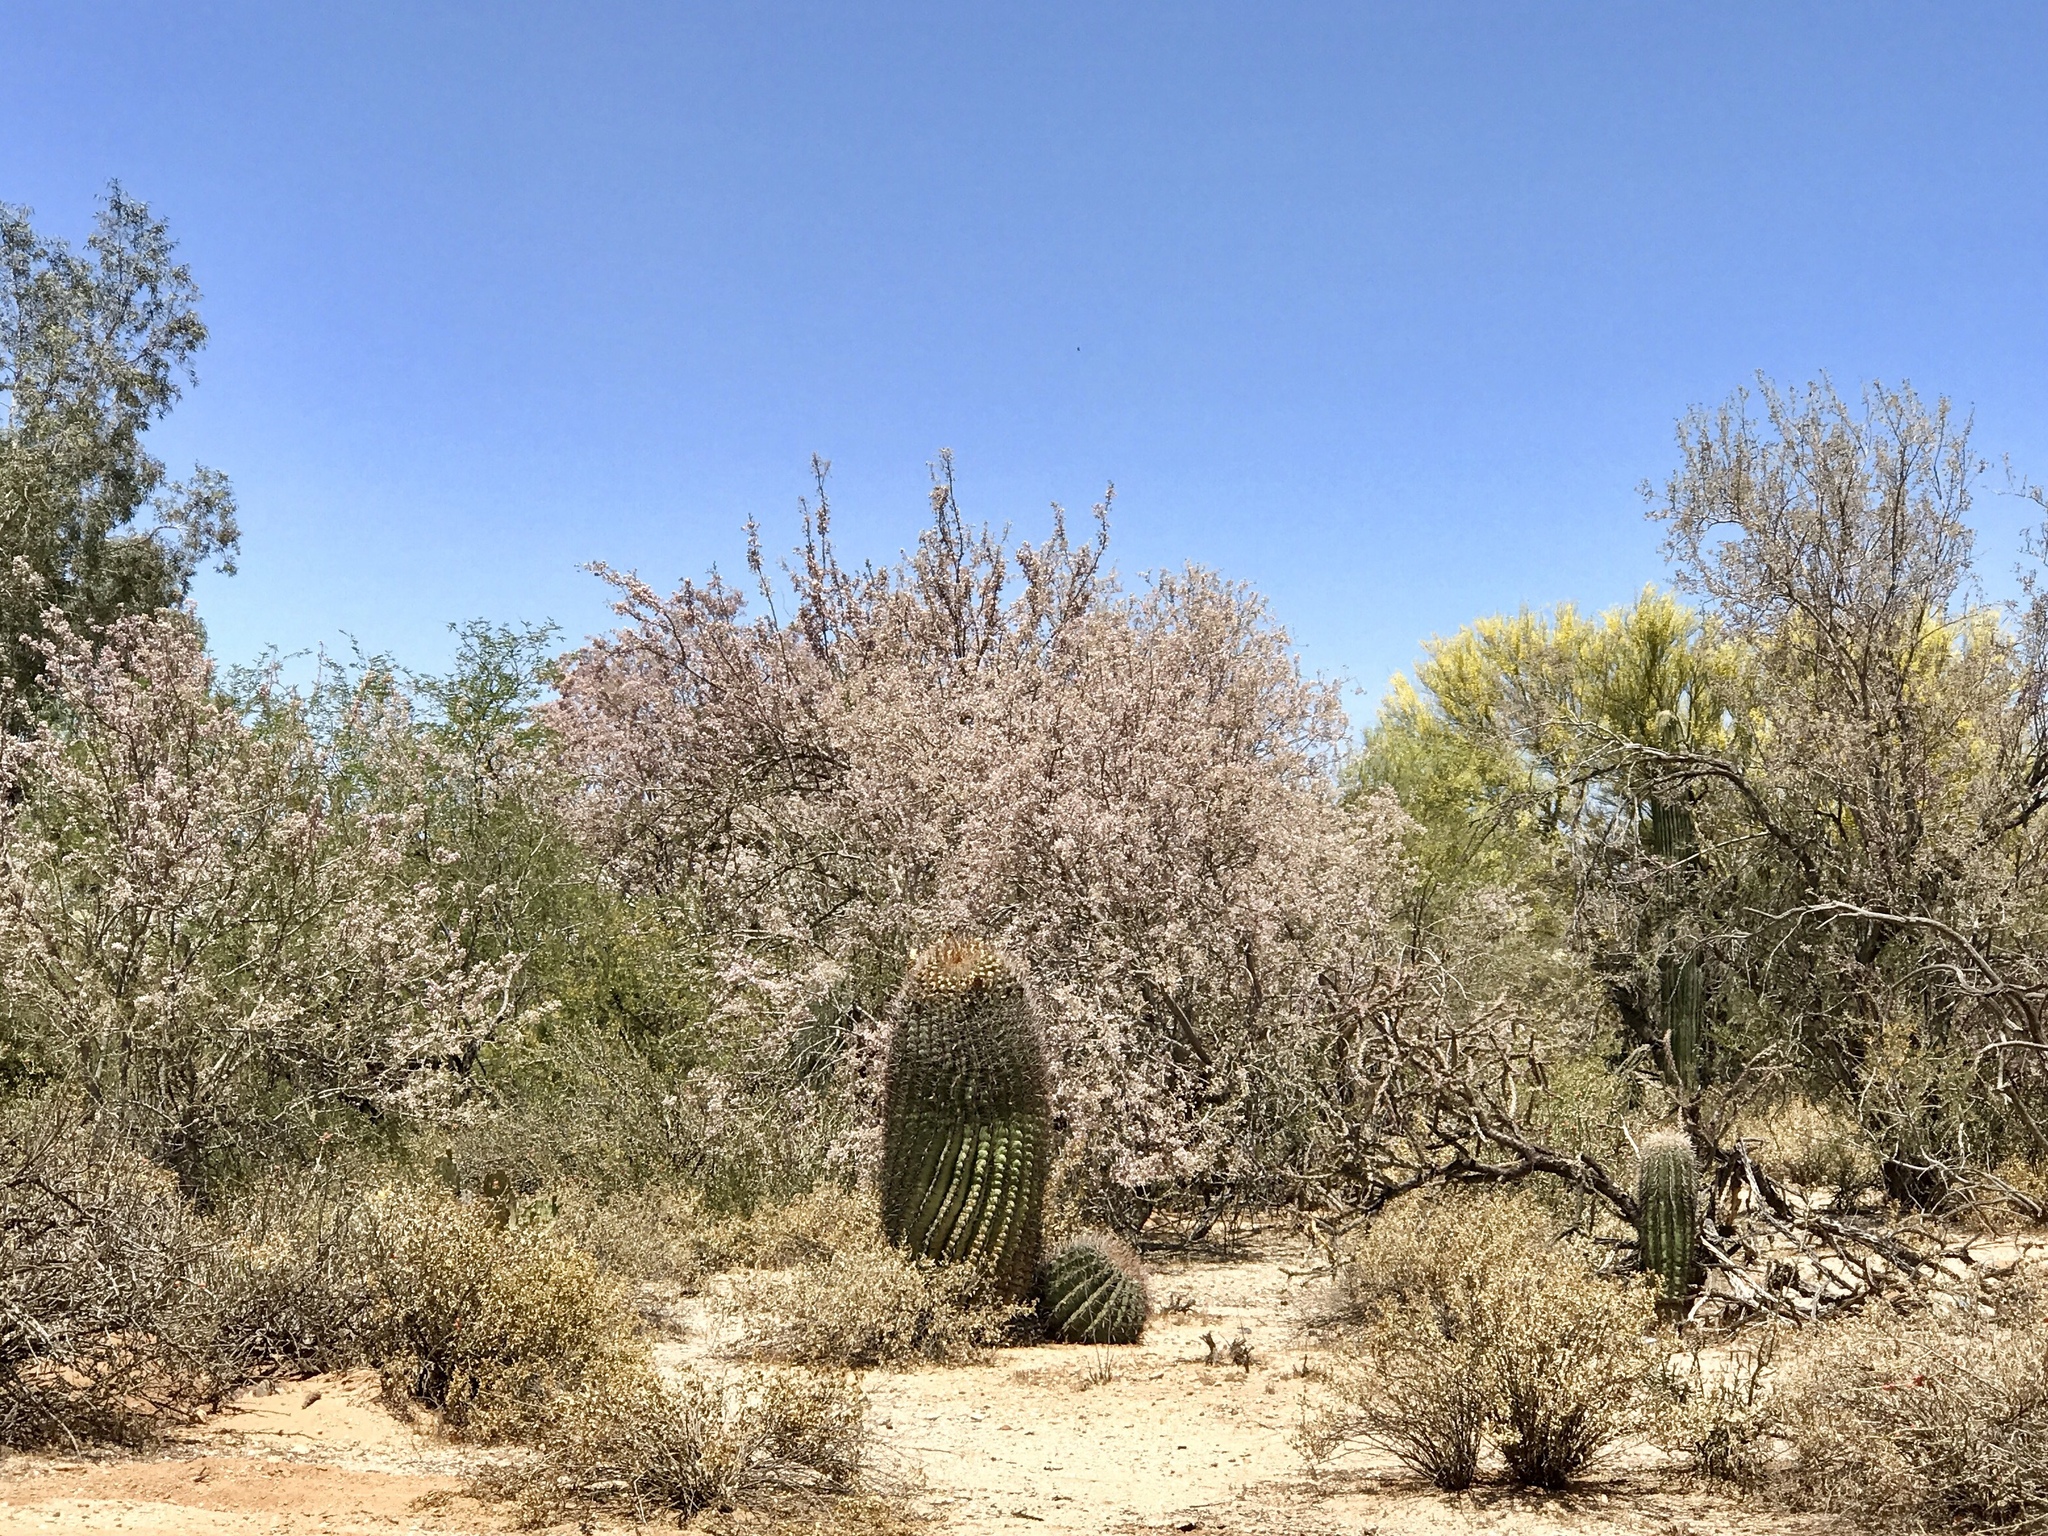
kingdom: Plantae
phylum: Tracheophyta
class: Magnoliopsida
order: Caryophyllales
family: Cactaceae
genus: Ferocactus
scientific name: Ferocactus wislizeni
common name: Candy barrel cactus
